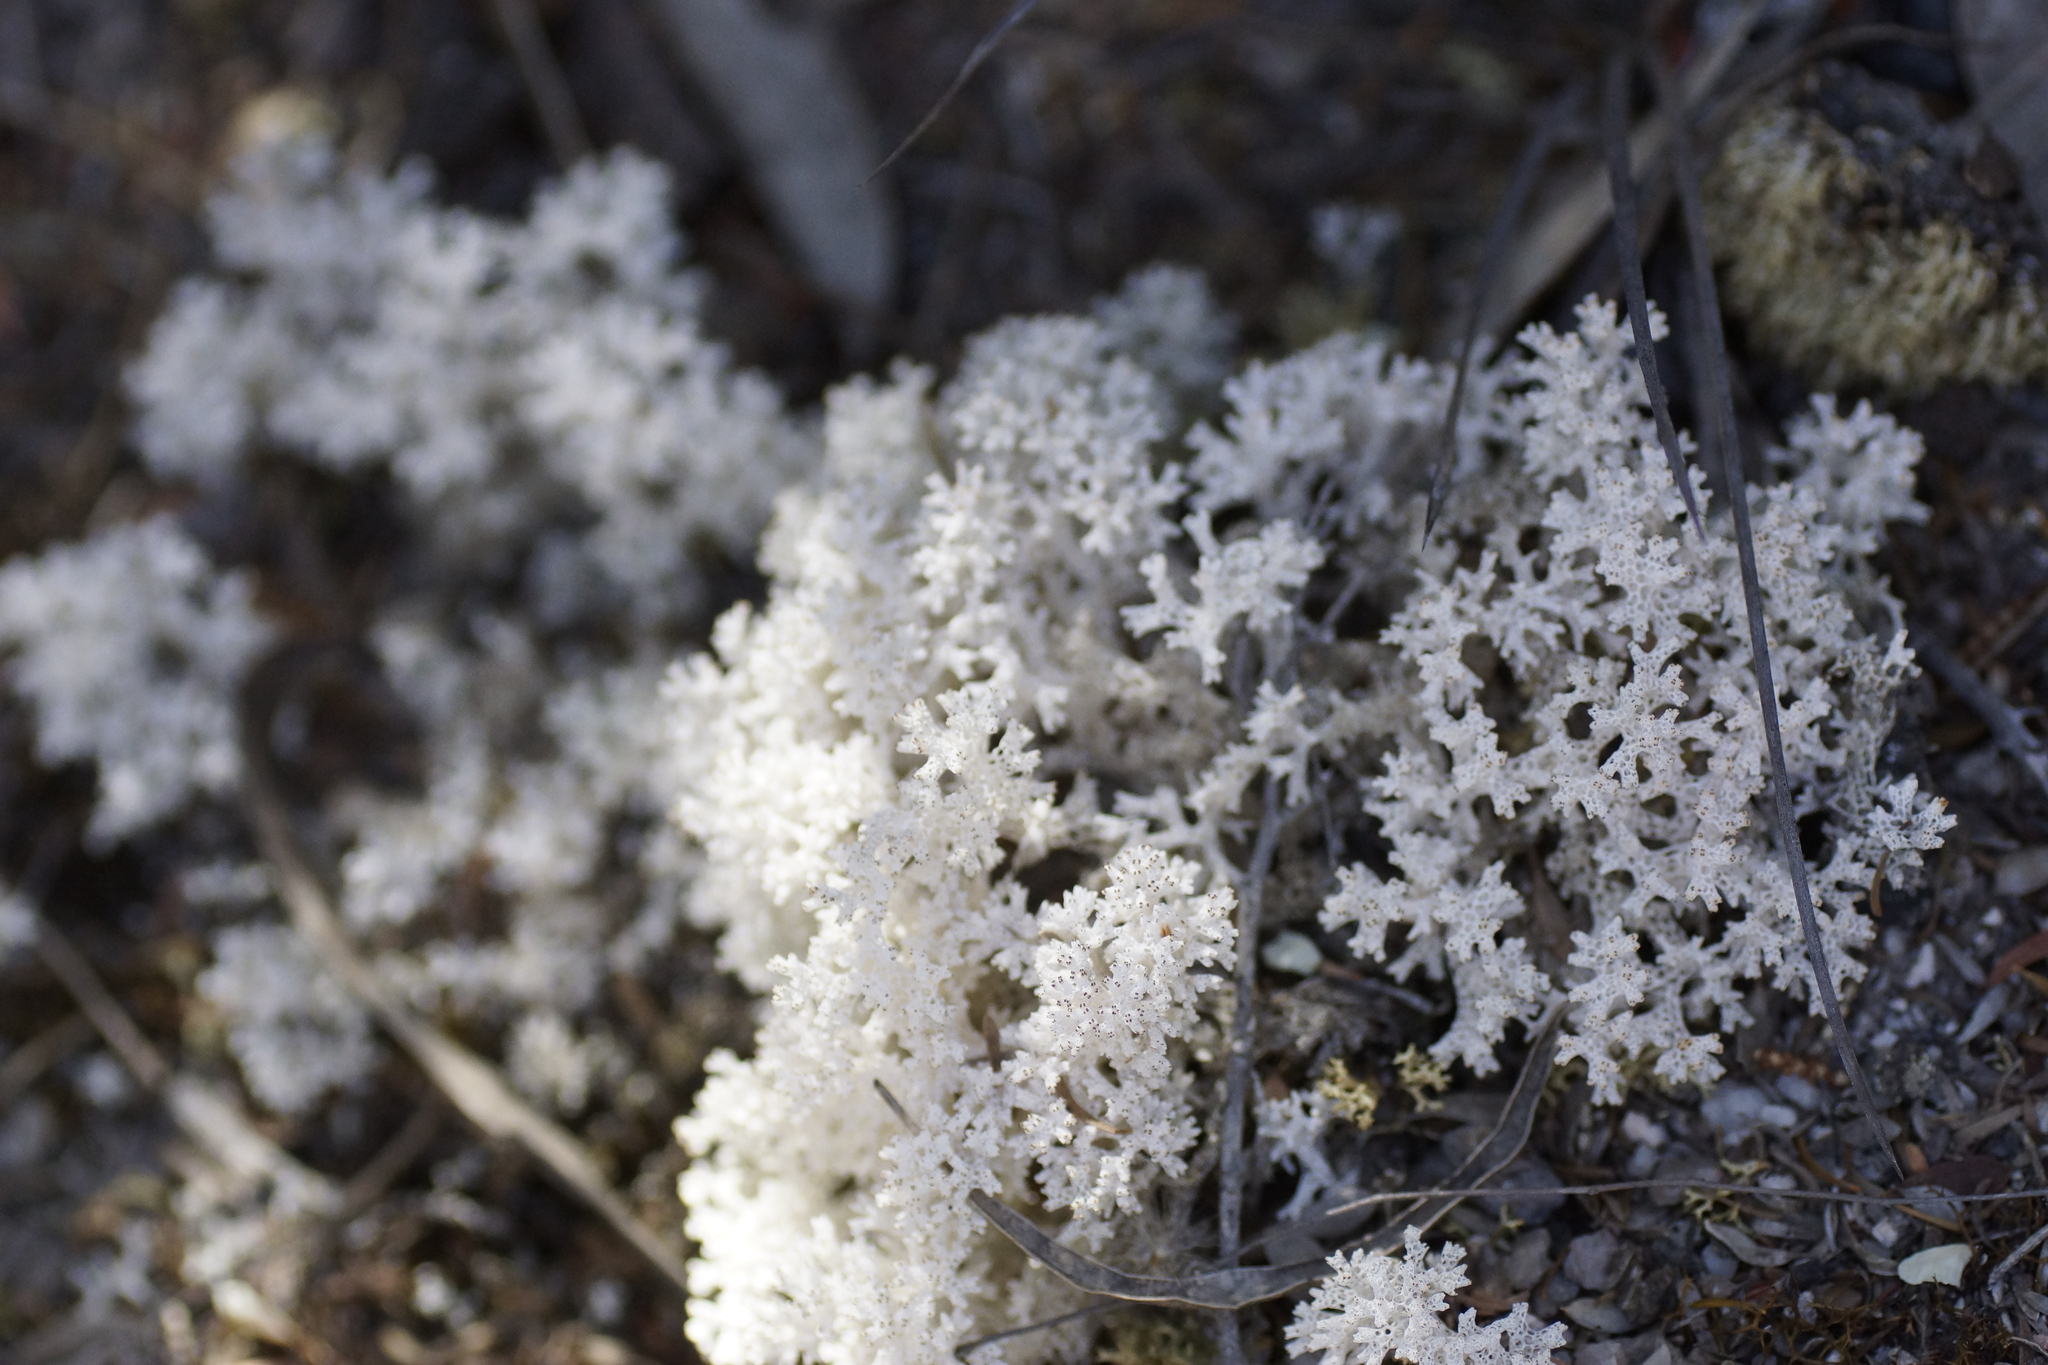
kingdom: Fungi
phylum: Ascomycota
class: Lecanoromycetes
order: Lecanorales
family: Cladoniaceae
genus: Pulchrocladia
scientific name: Pulchrocladia retipora
